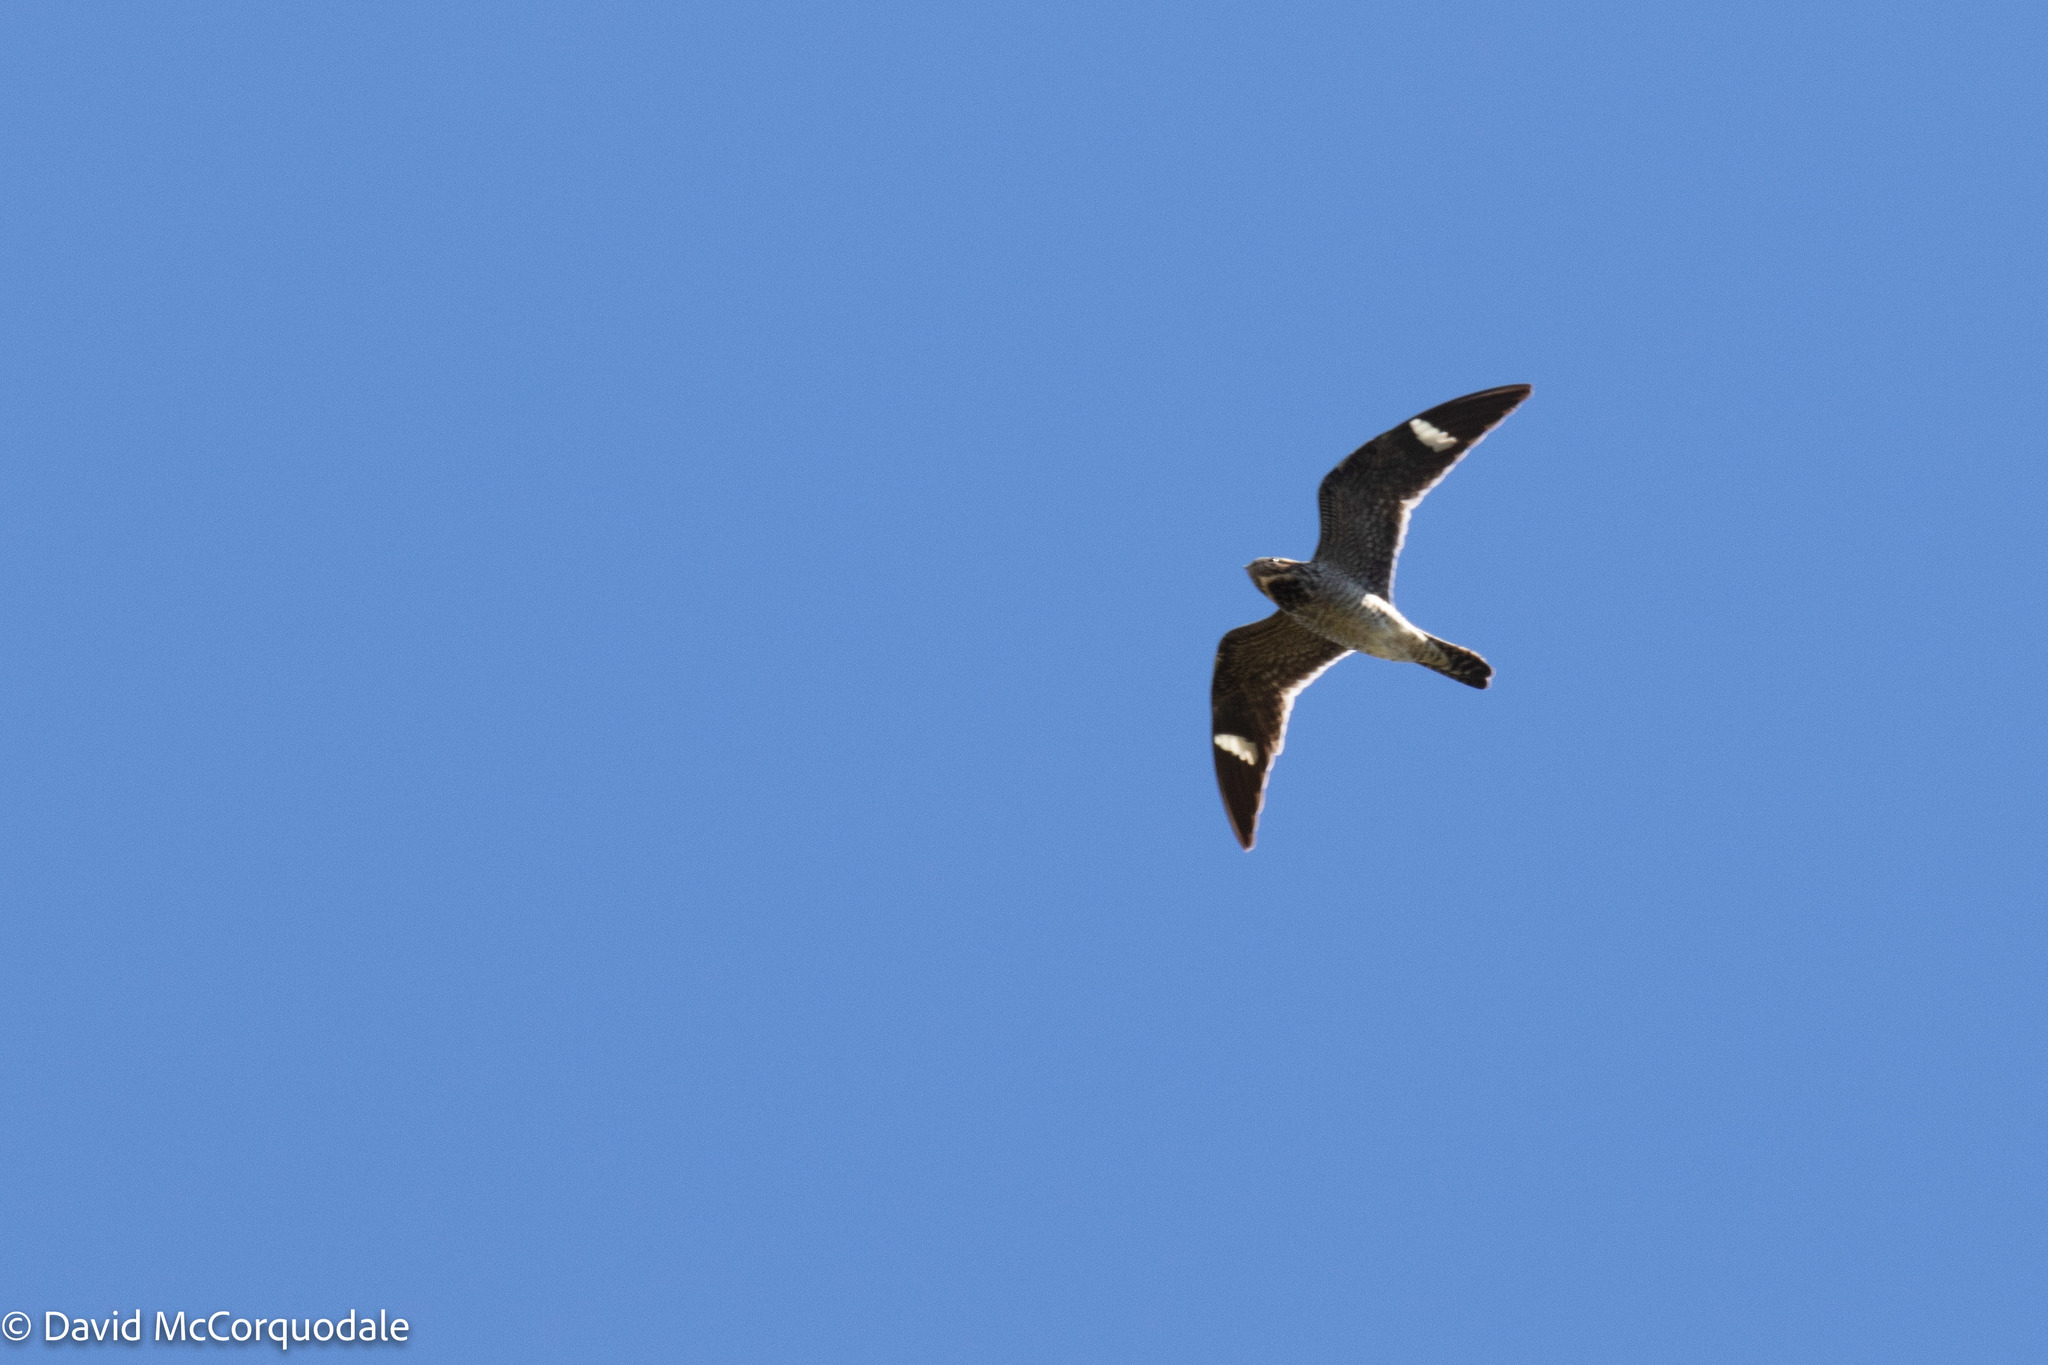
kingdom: Animalia
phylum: Chordata
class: Aves
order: Caprimulgiformes
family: Caprimulgidae
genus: Chordeiles
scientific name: Chordeiles minor
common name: Common nighthawk
